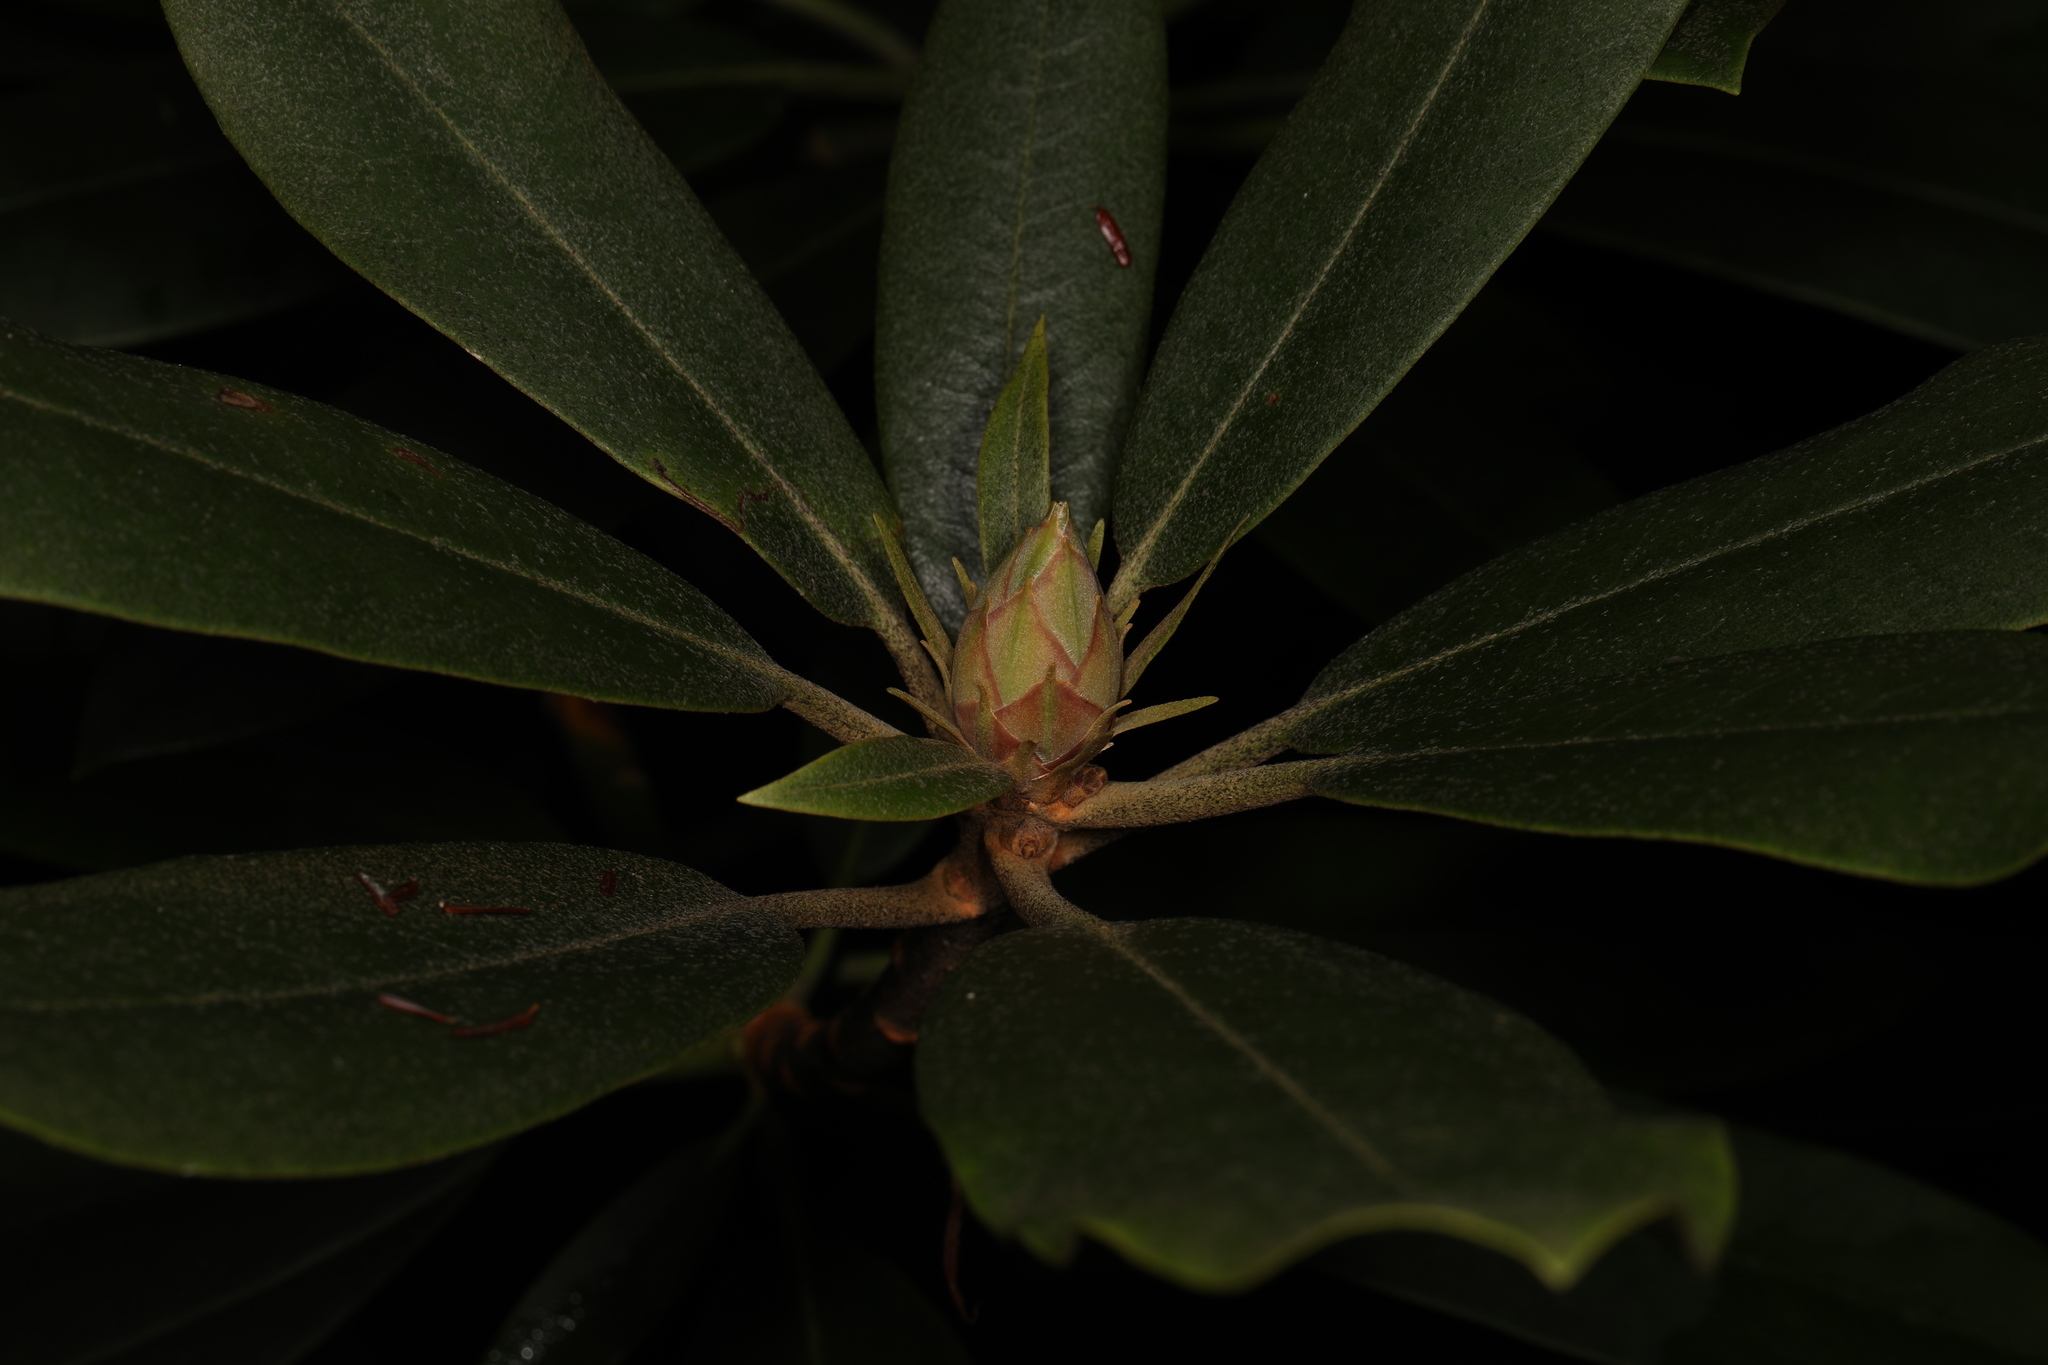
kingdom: Plantae
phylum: Tracheophyta
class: Magnoliopsida
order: Ericales
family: Ericaceae
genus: Rhododendron
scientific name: Rhododendron maximum
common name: Great rhododendron
